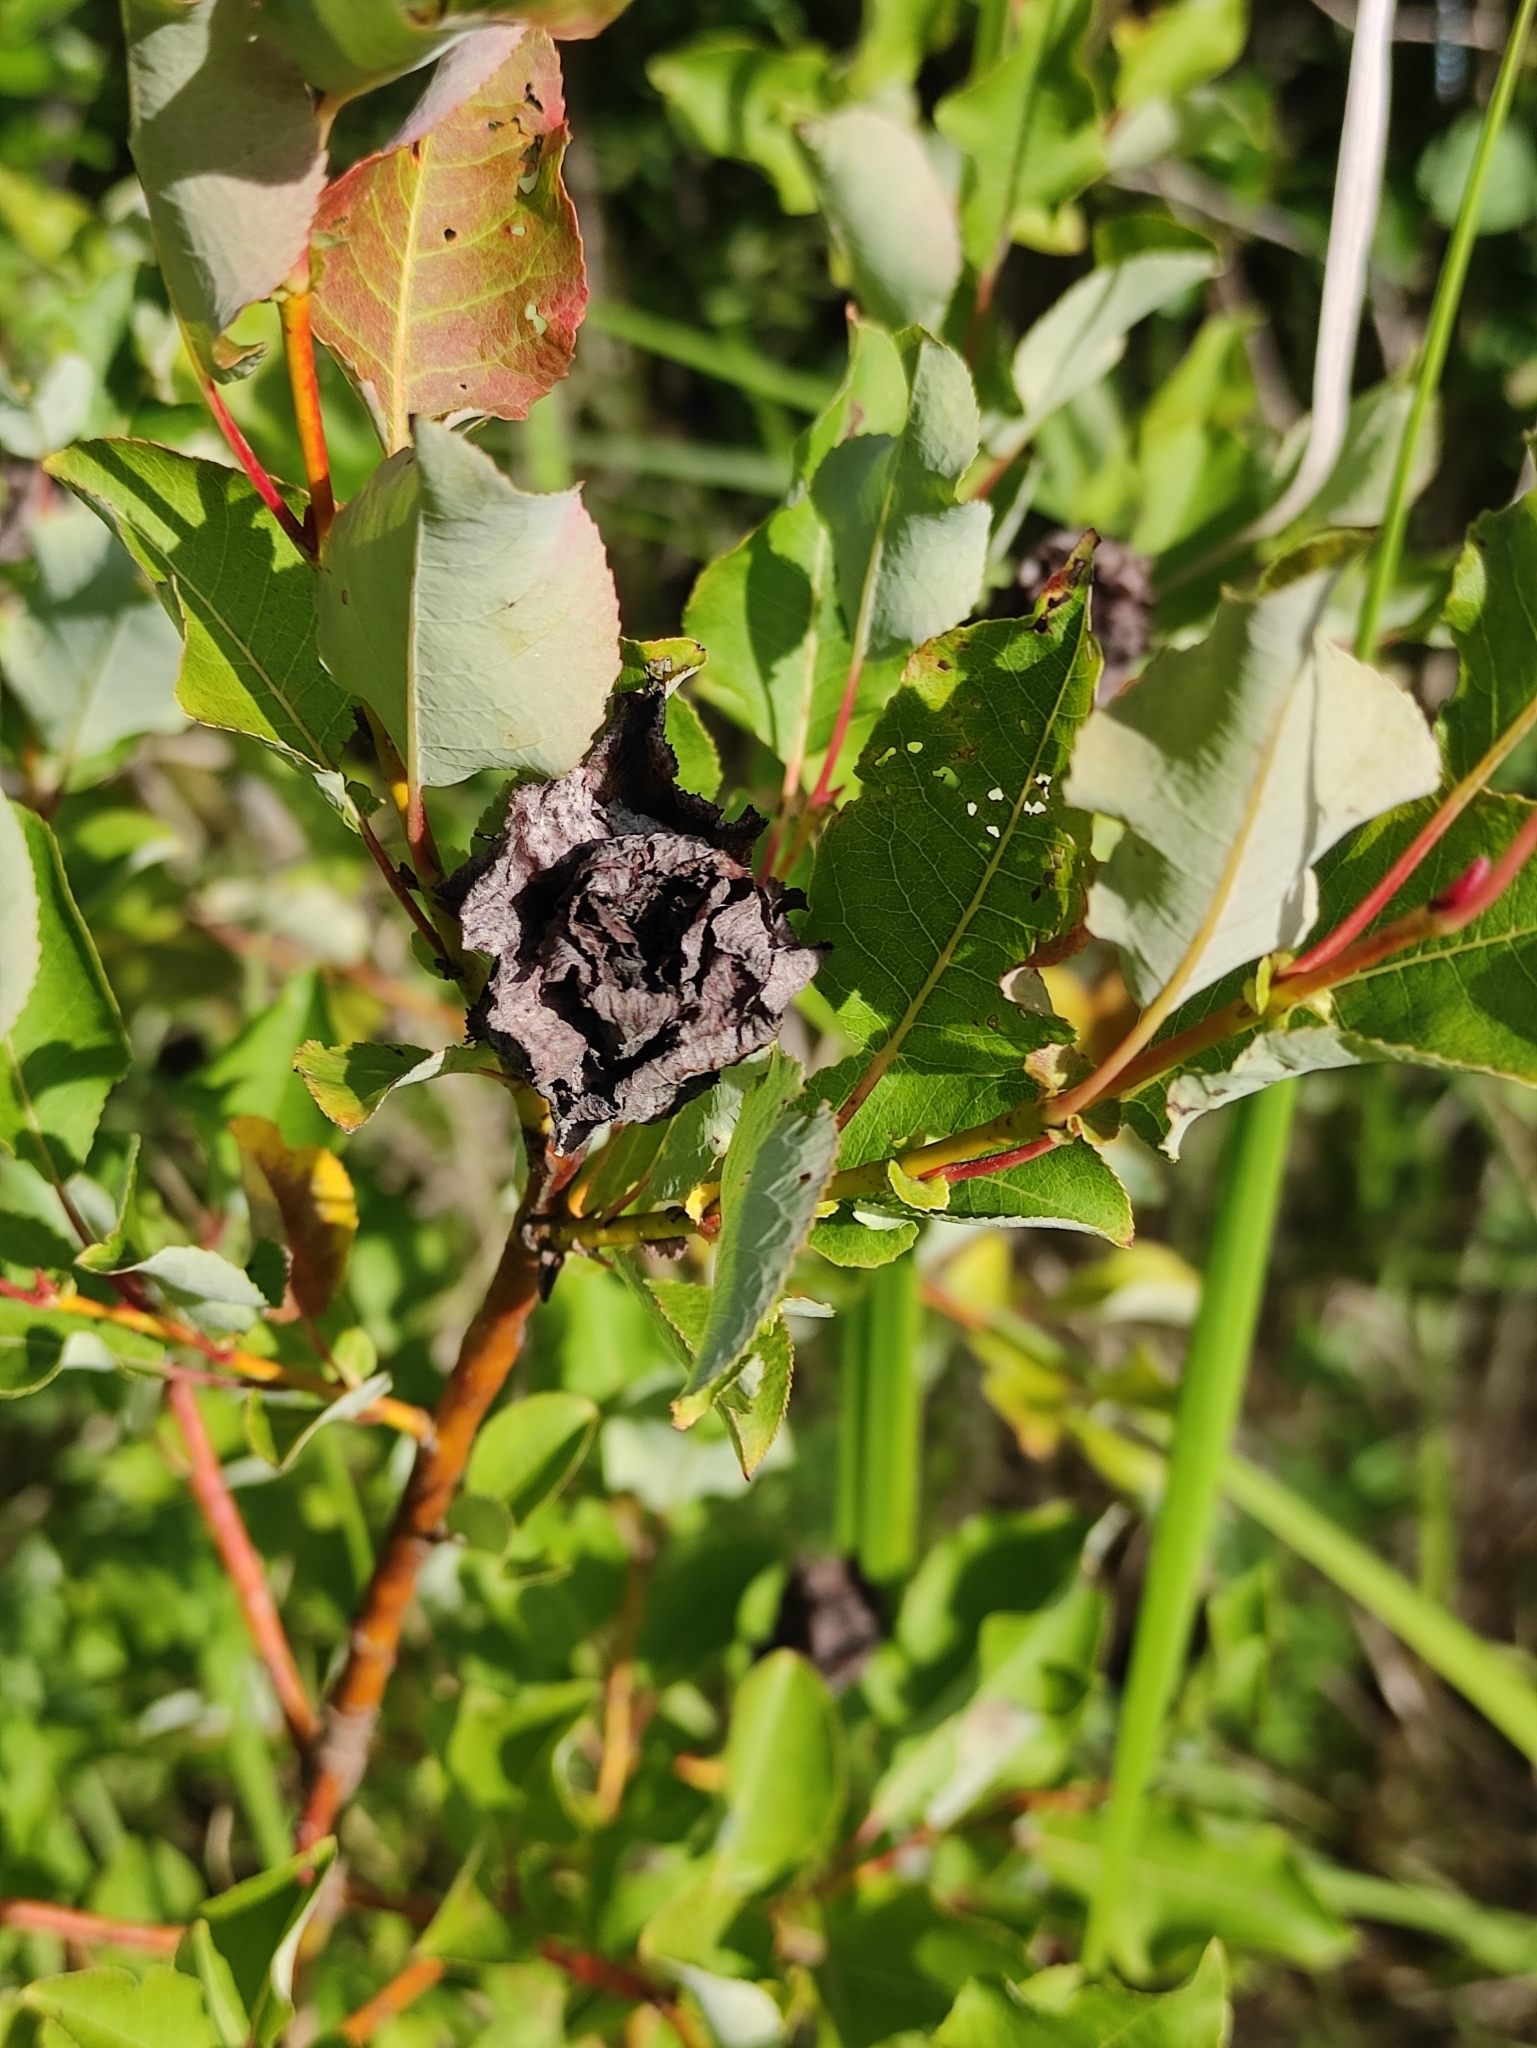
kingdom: Animalia
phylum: Arthropoda
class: Insecta
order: Diptera
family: Cecidomyiidae
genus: Rabdophaga
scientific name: Rabdophaga rosaria
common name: Willow rose gall midge
